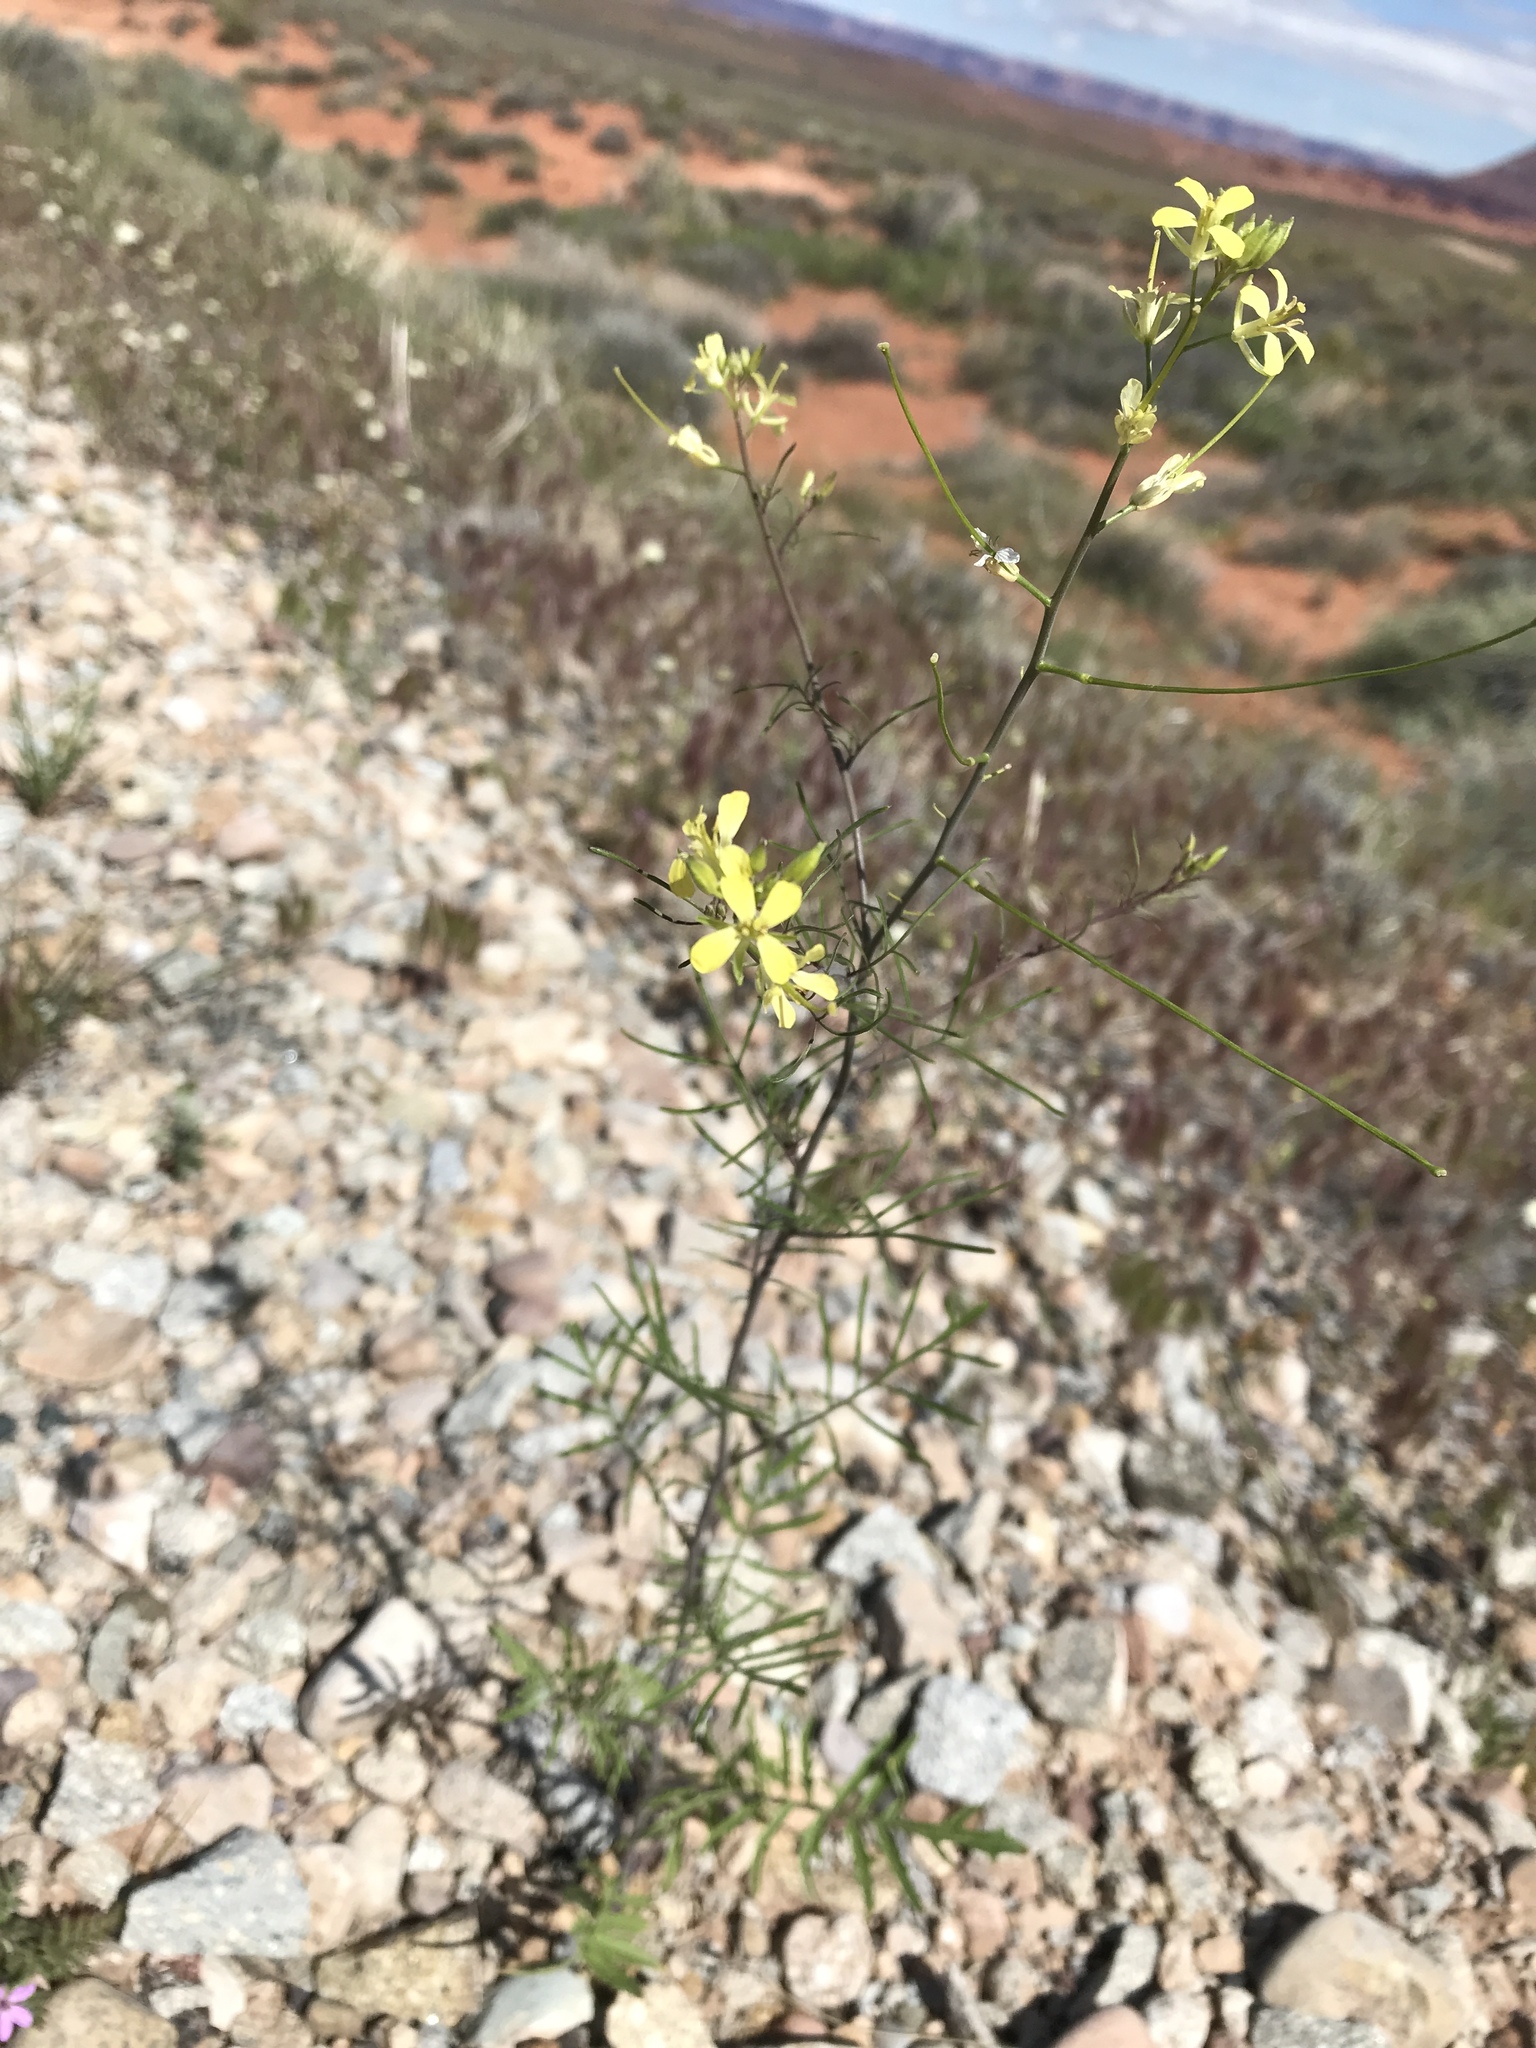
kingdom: Plantae
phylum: Tracheophyta
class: Magnoliopsida
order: Brassicales
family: Brassicaceae
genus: Sisymbrium
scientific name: Sisymbrium altissimum
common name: Tall rocket
